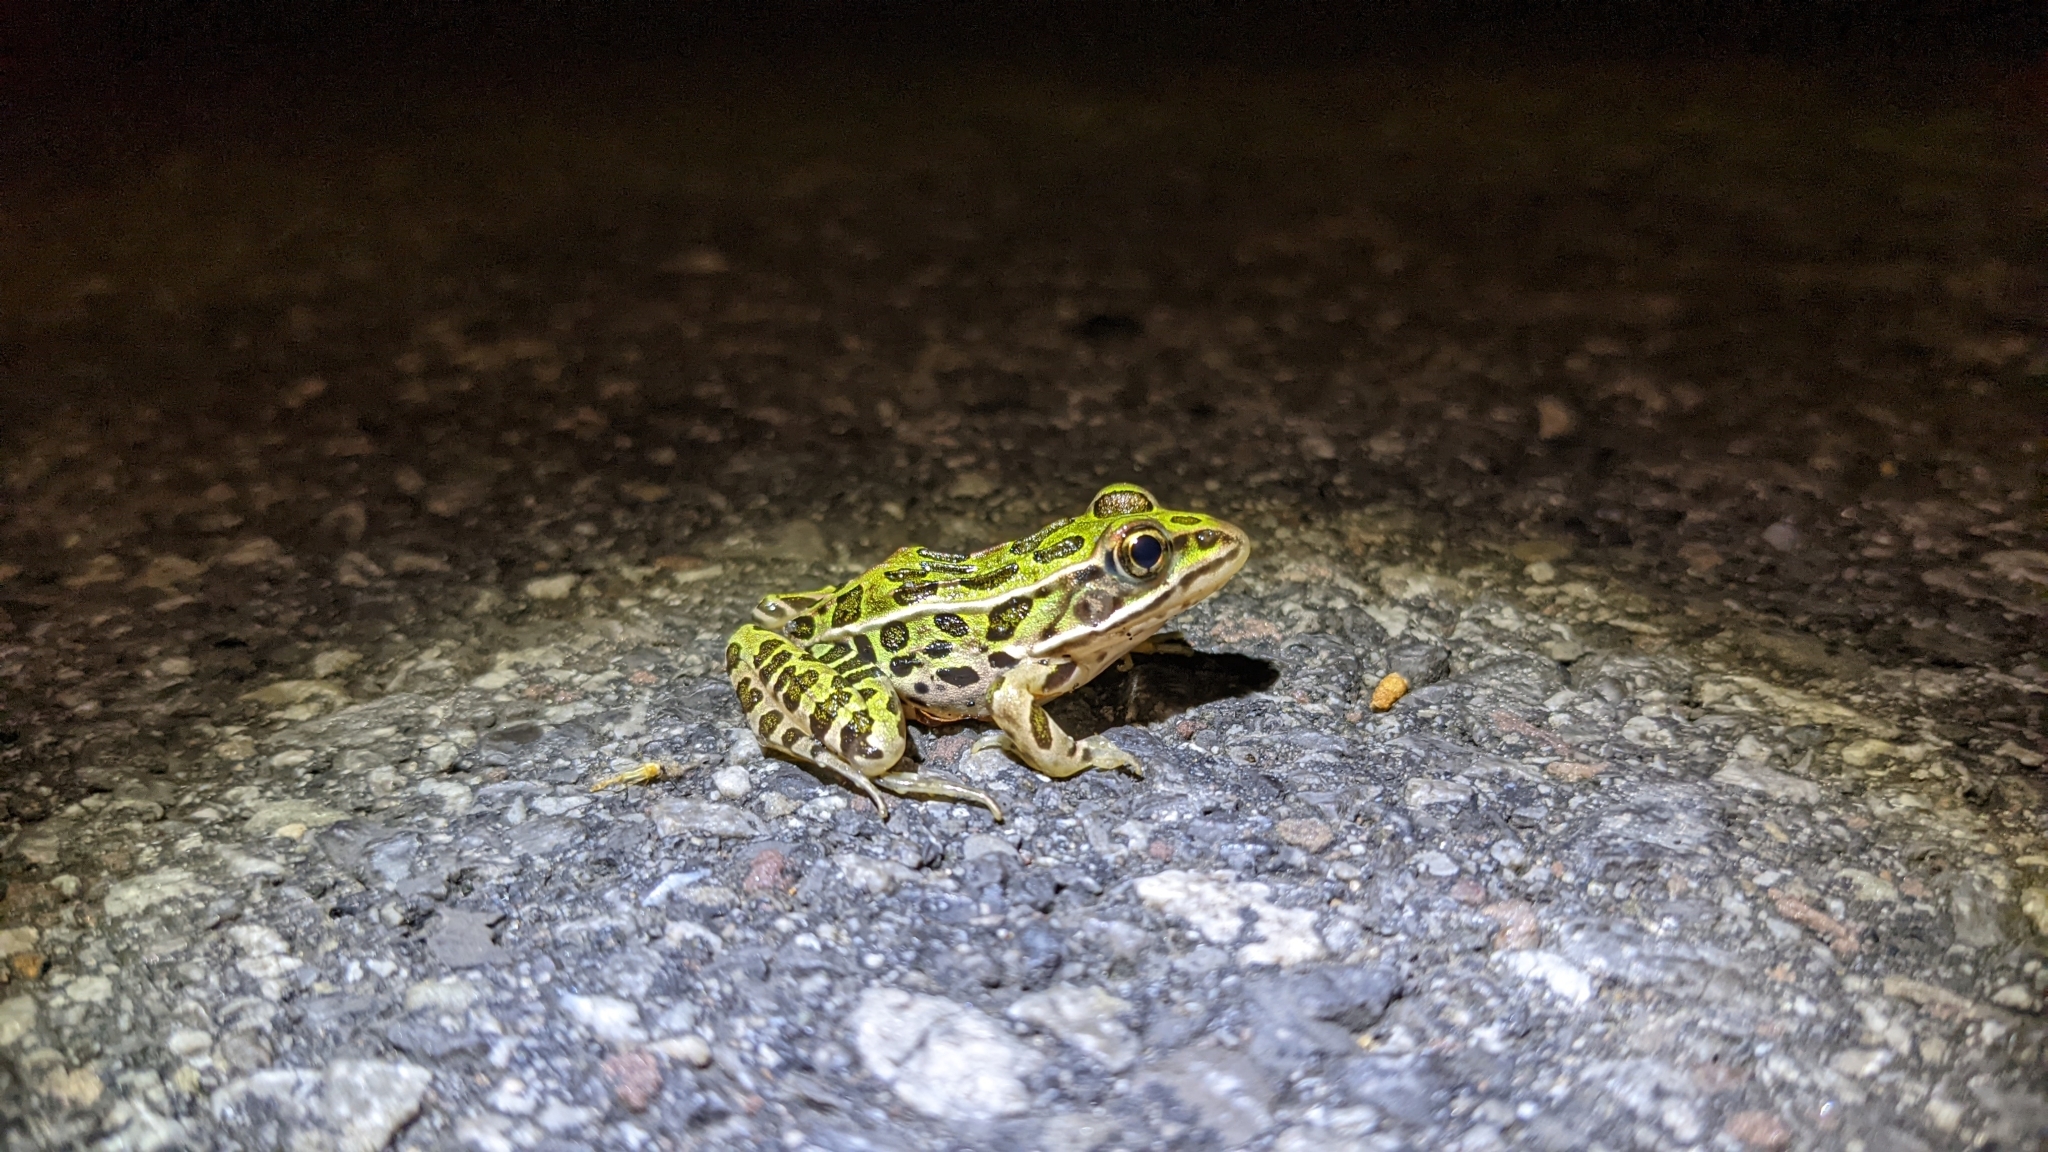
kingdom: Animalia
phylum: Chordata
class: Amphibia
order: Anura
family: Ranidae
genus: Lithobates
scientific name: Lithobates pipiens
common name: Northern leopard frog
